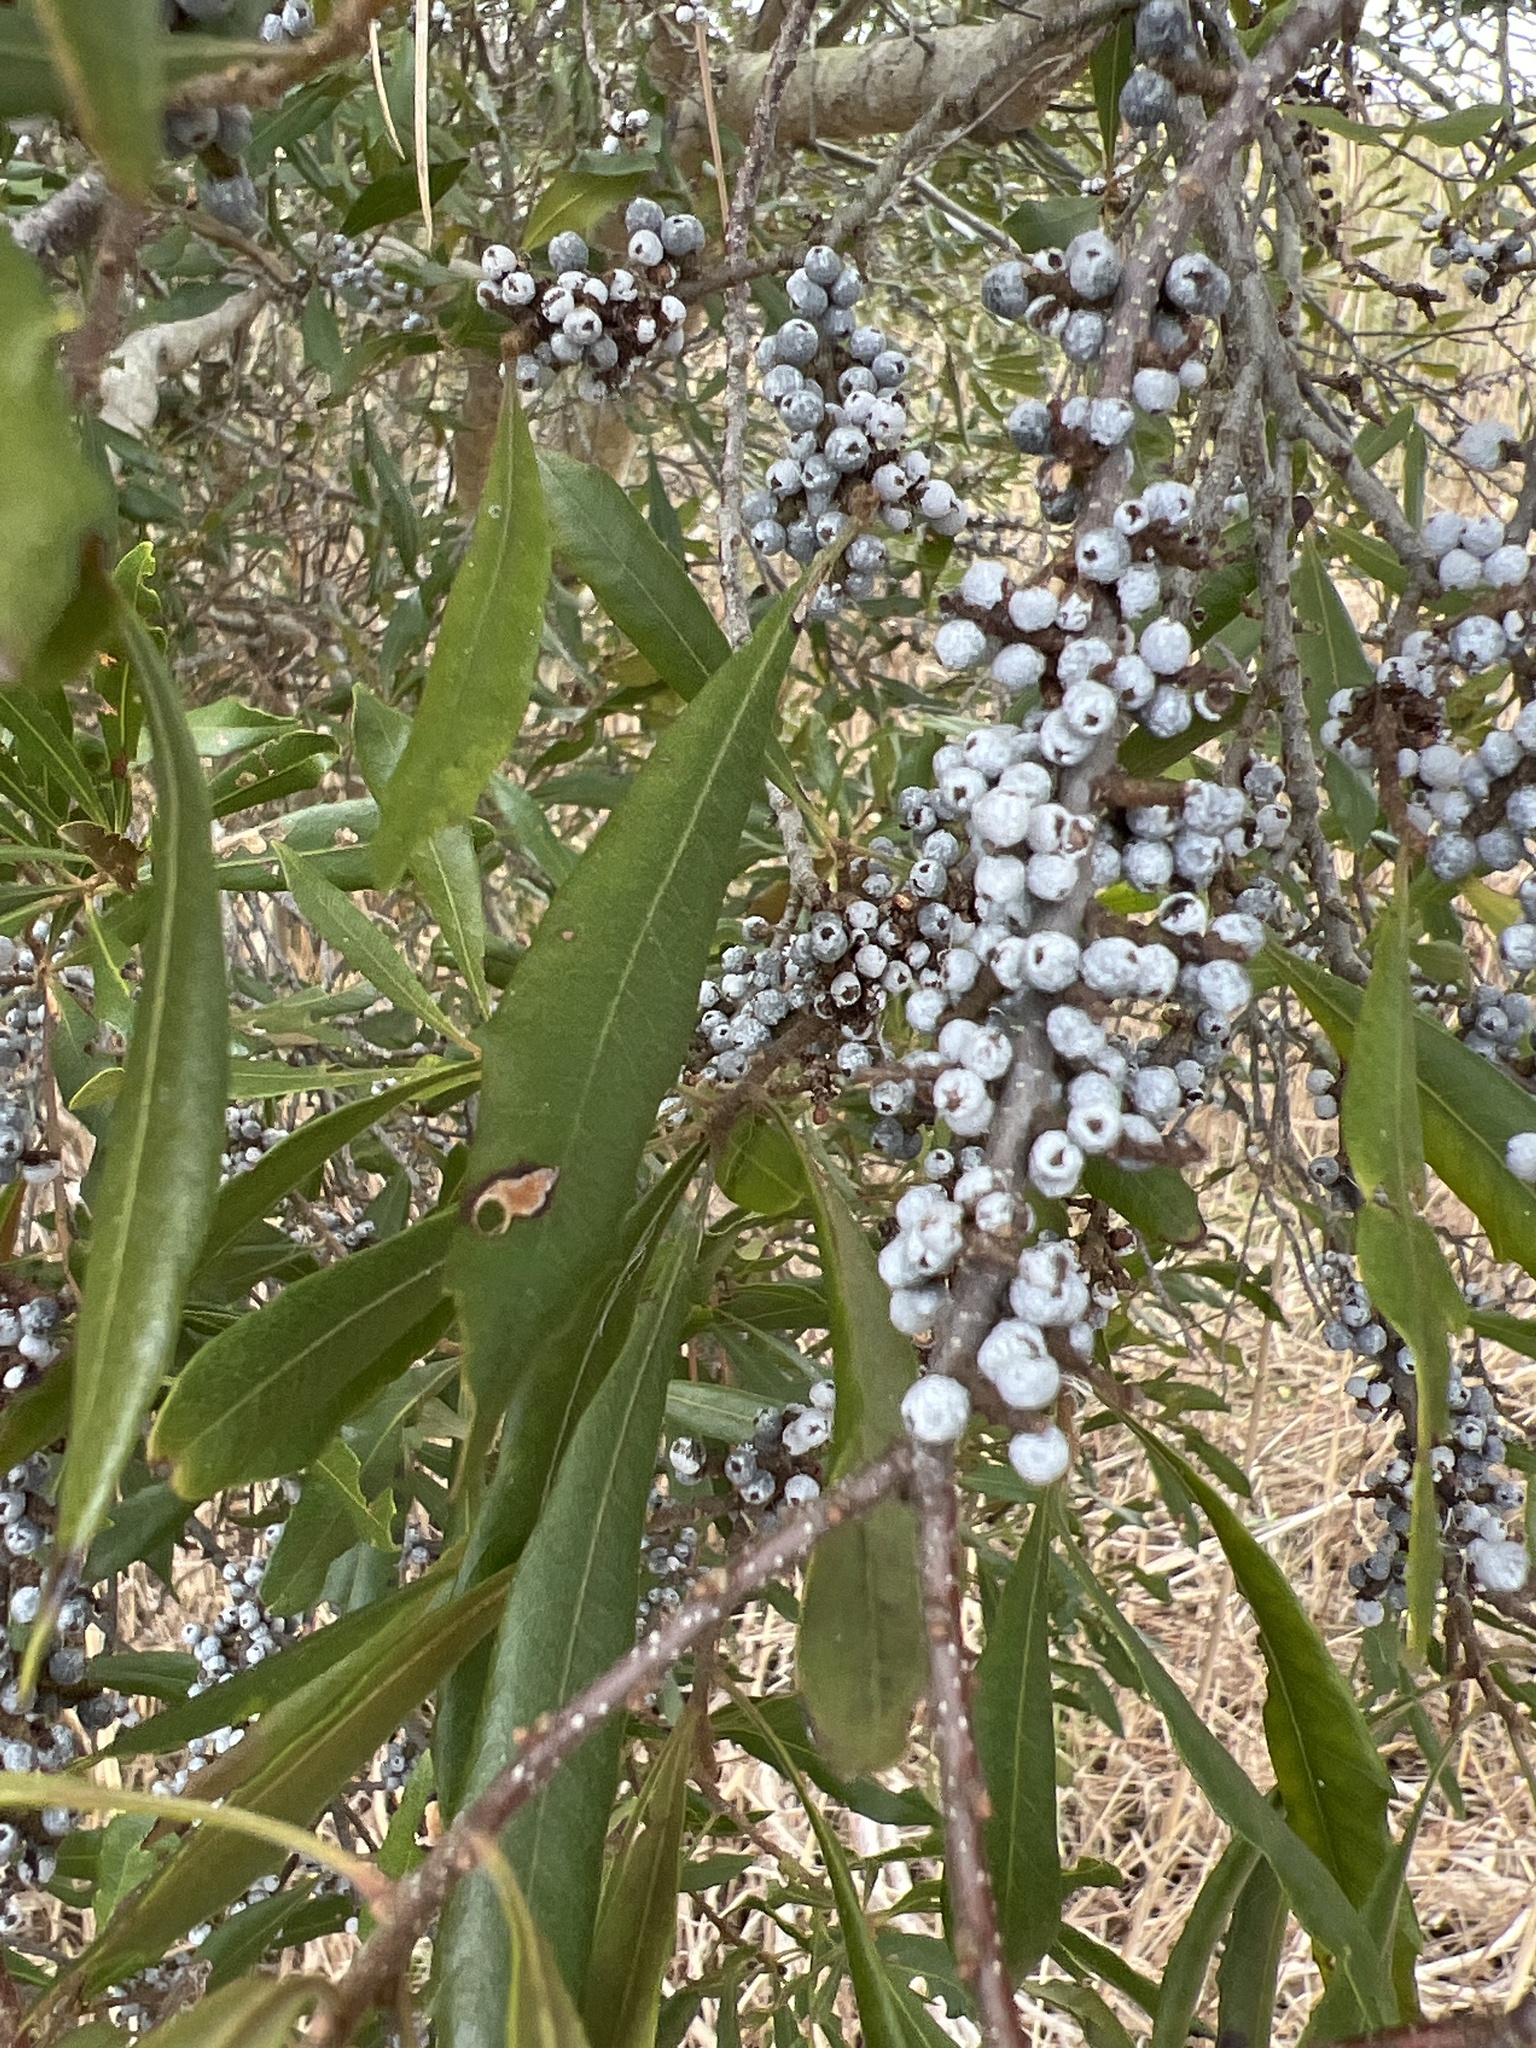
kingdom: Plantae
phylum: Tracheophyta
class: Magnoliopsida
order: Fagales
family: Myricaceae
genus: Morella
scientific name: Morella cerifera
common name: Wax myrtle
